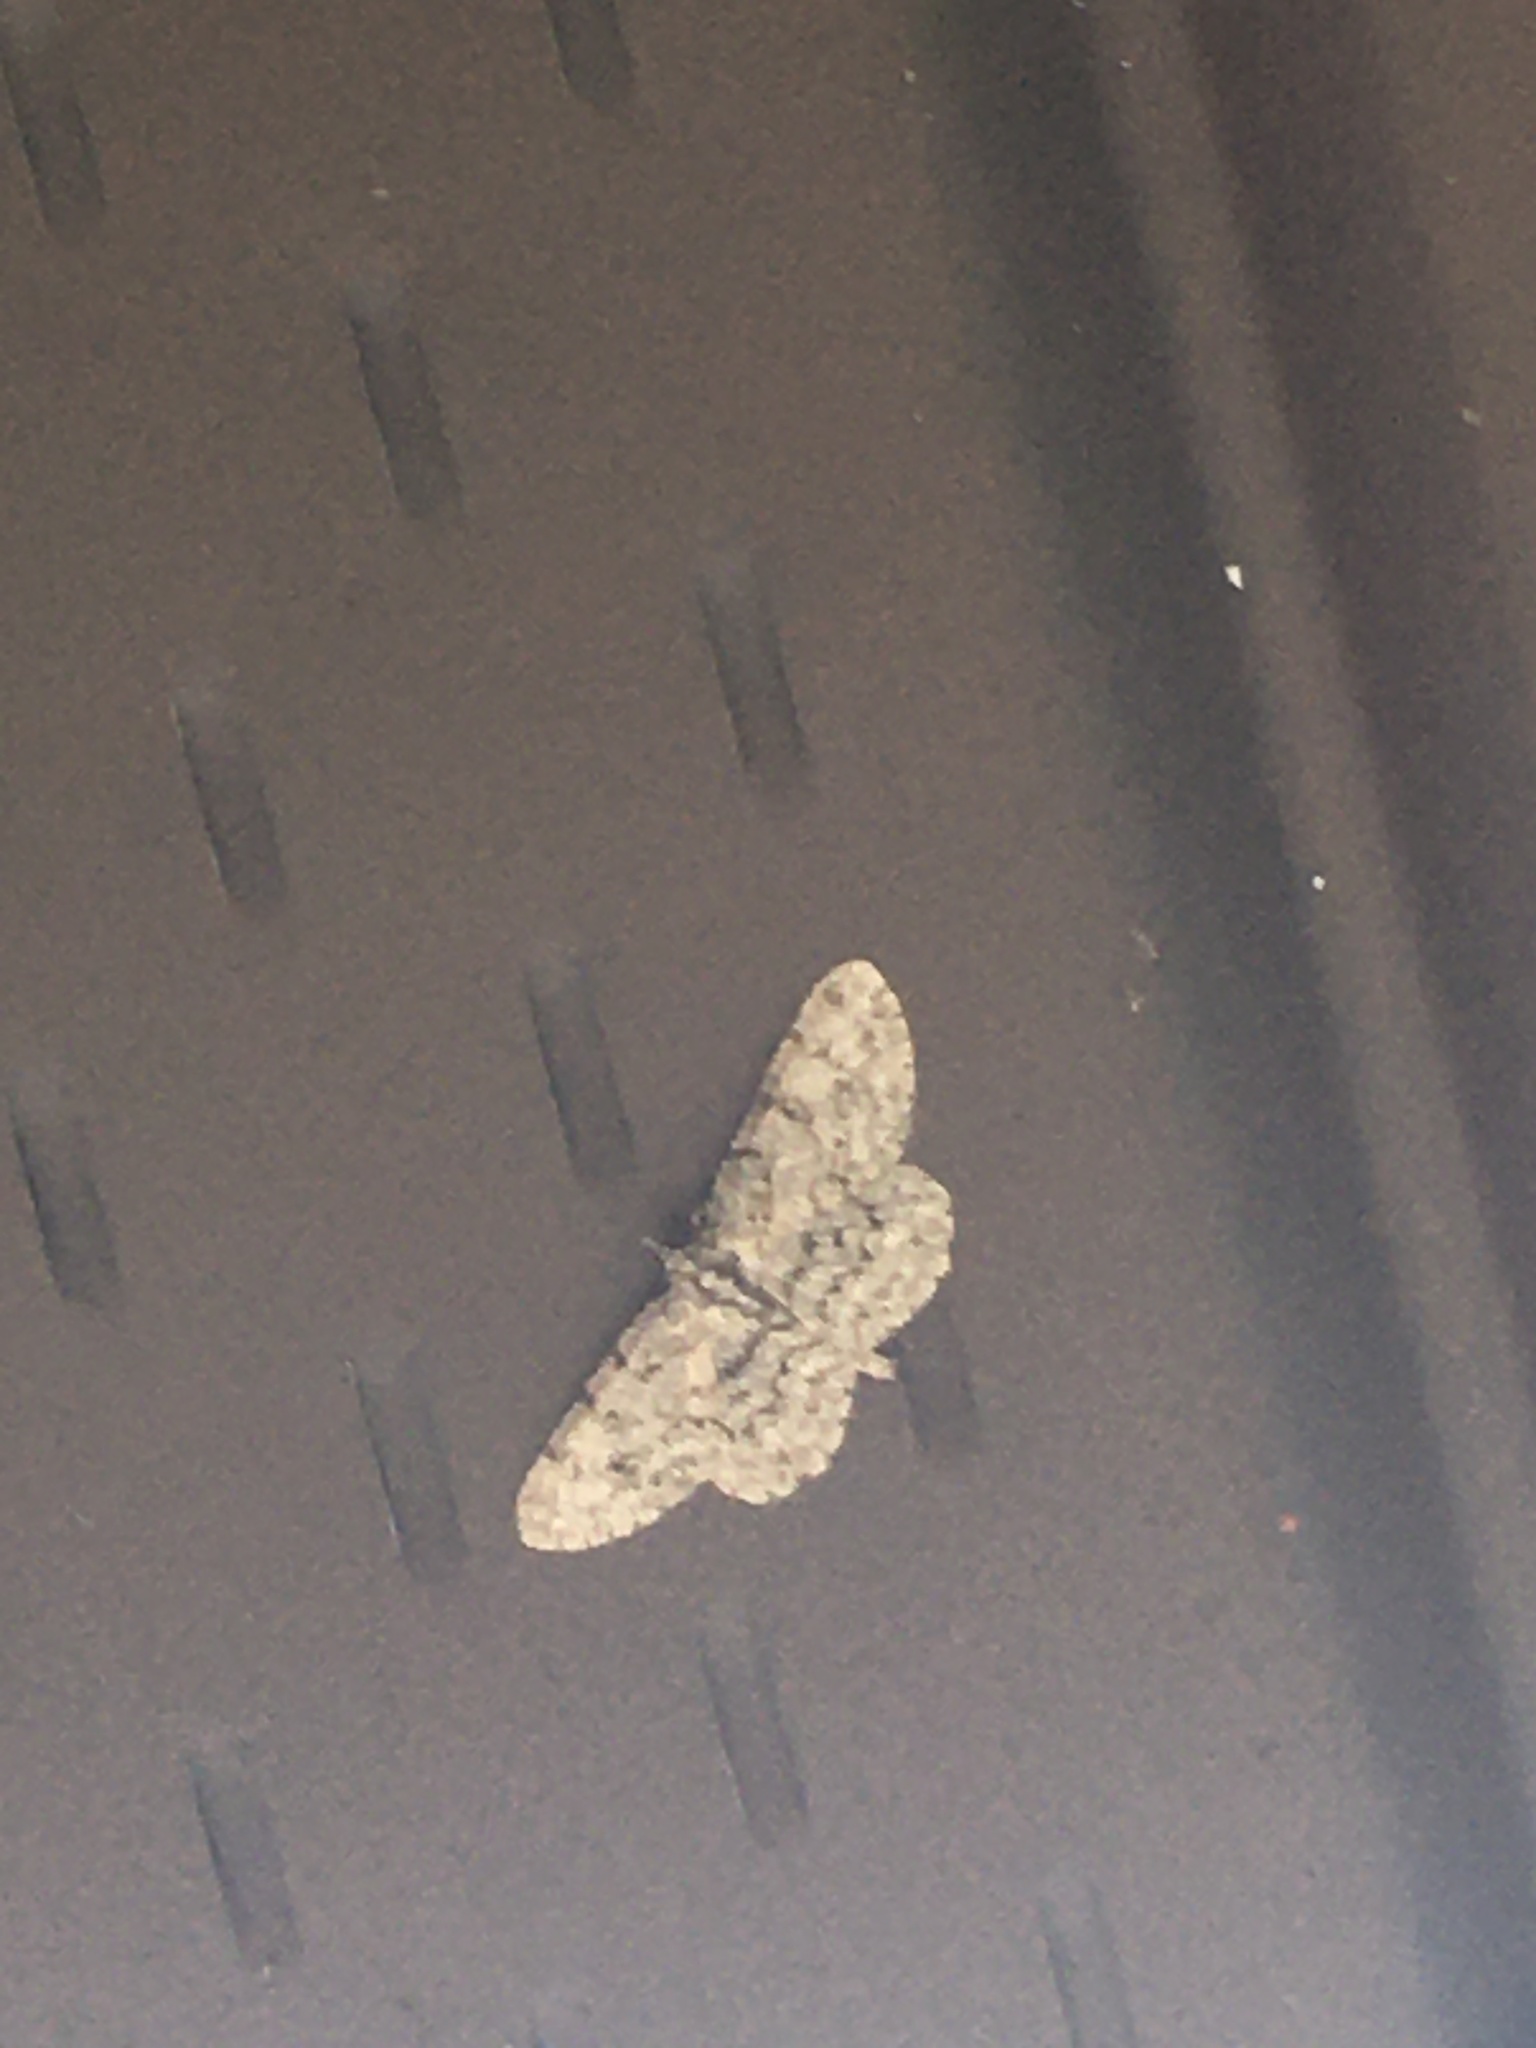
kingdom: Animalia
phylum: Arthropoda
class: Insecta
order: Lepidoptera
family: Geometridae
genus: Protoboarmia
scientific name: Protoboarmia porcelaria
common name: Porcelain gray
